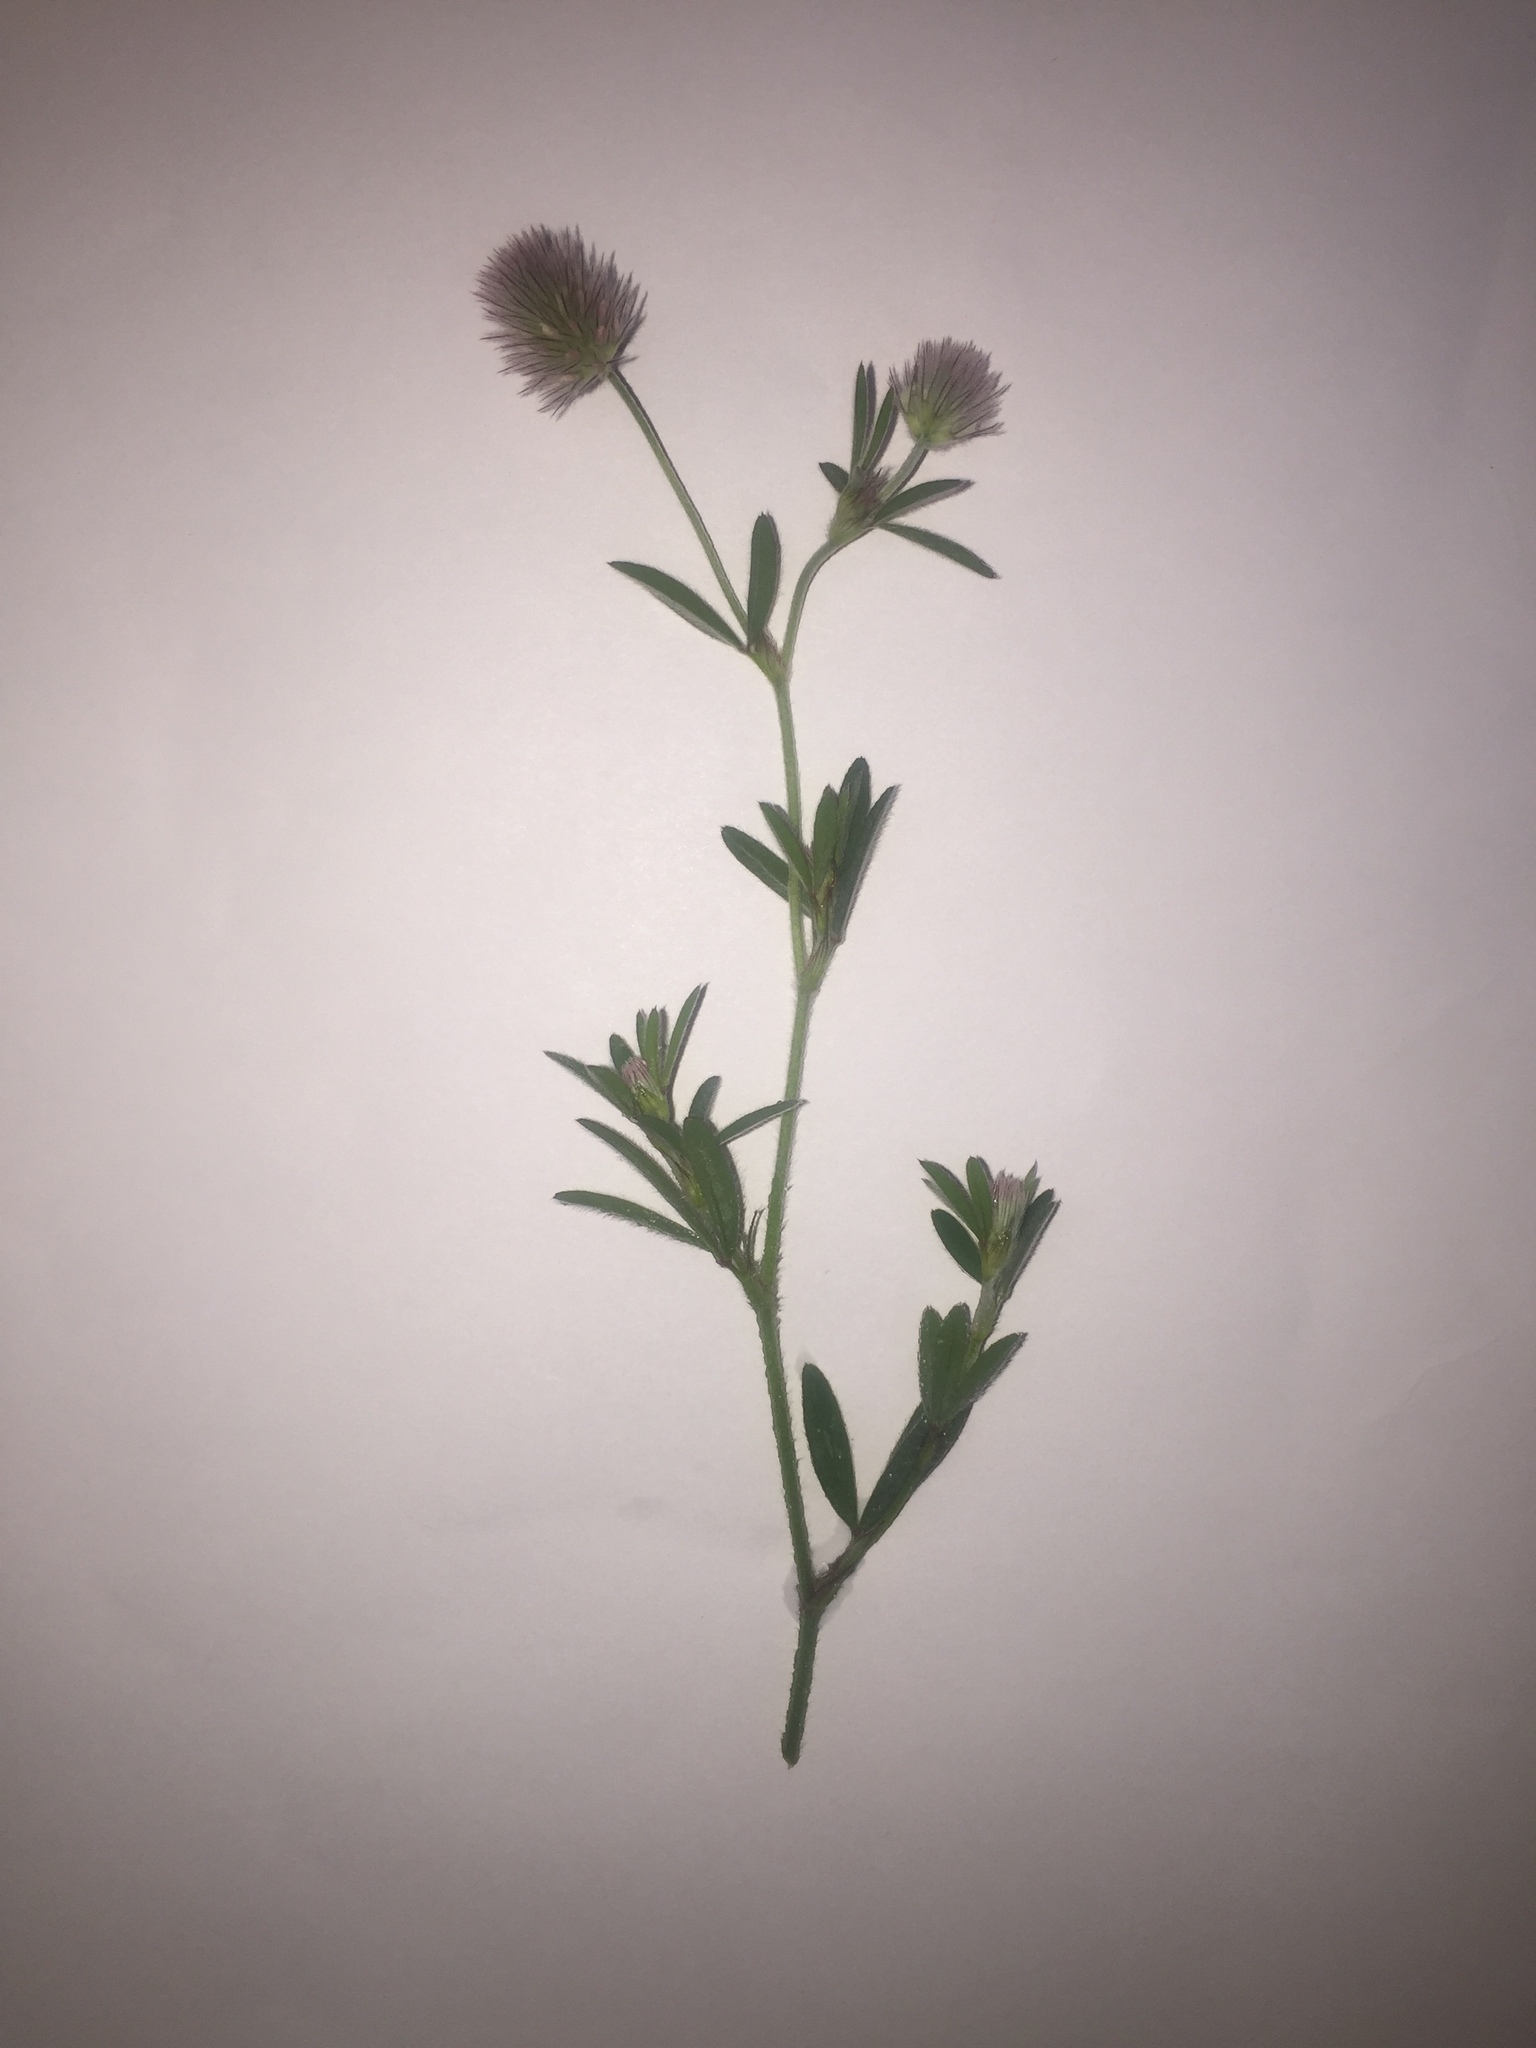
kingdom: Plantae
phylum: Tracheophyta
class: Magnoliopsida
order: Fabales
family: Fabaceae
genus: Trifolium
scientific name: Trifolium arvense
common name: Hare's-foot clover
